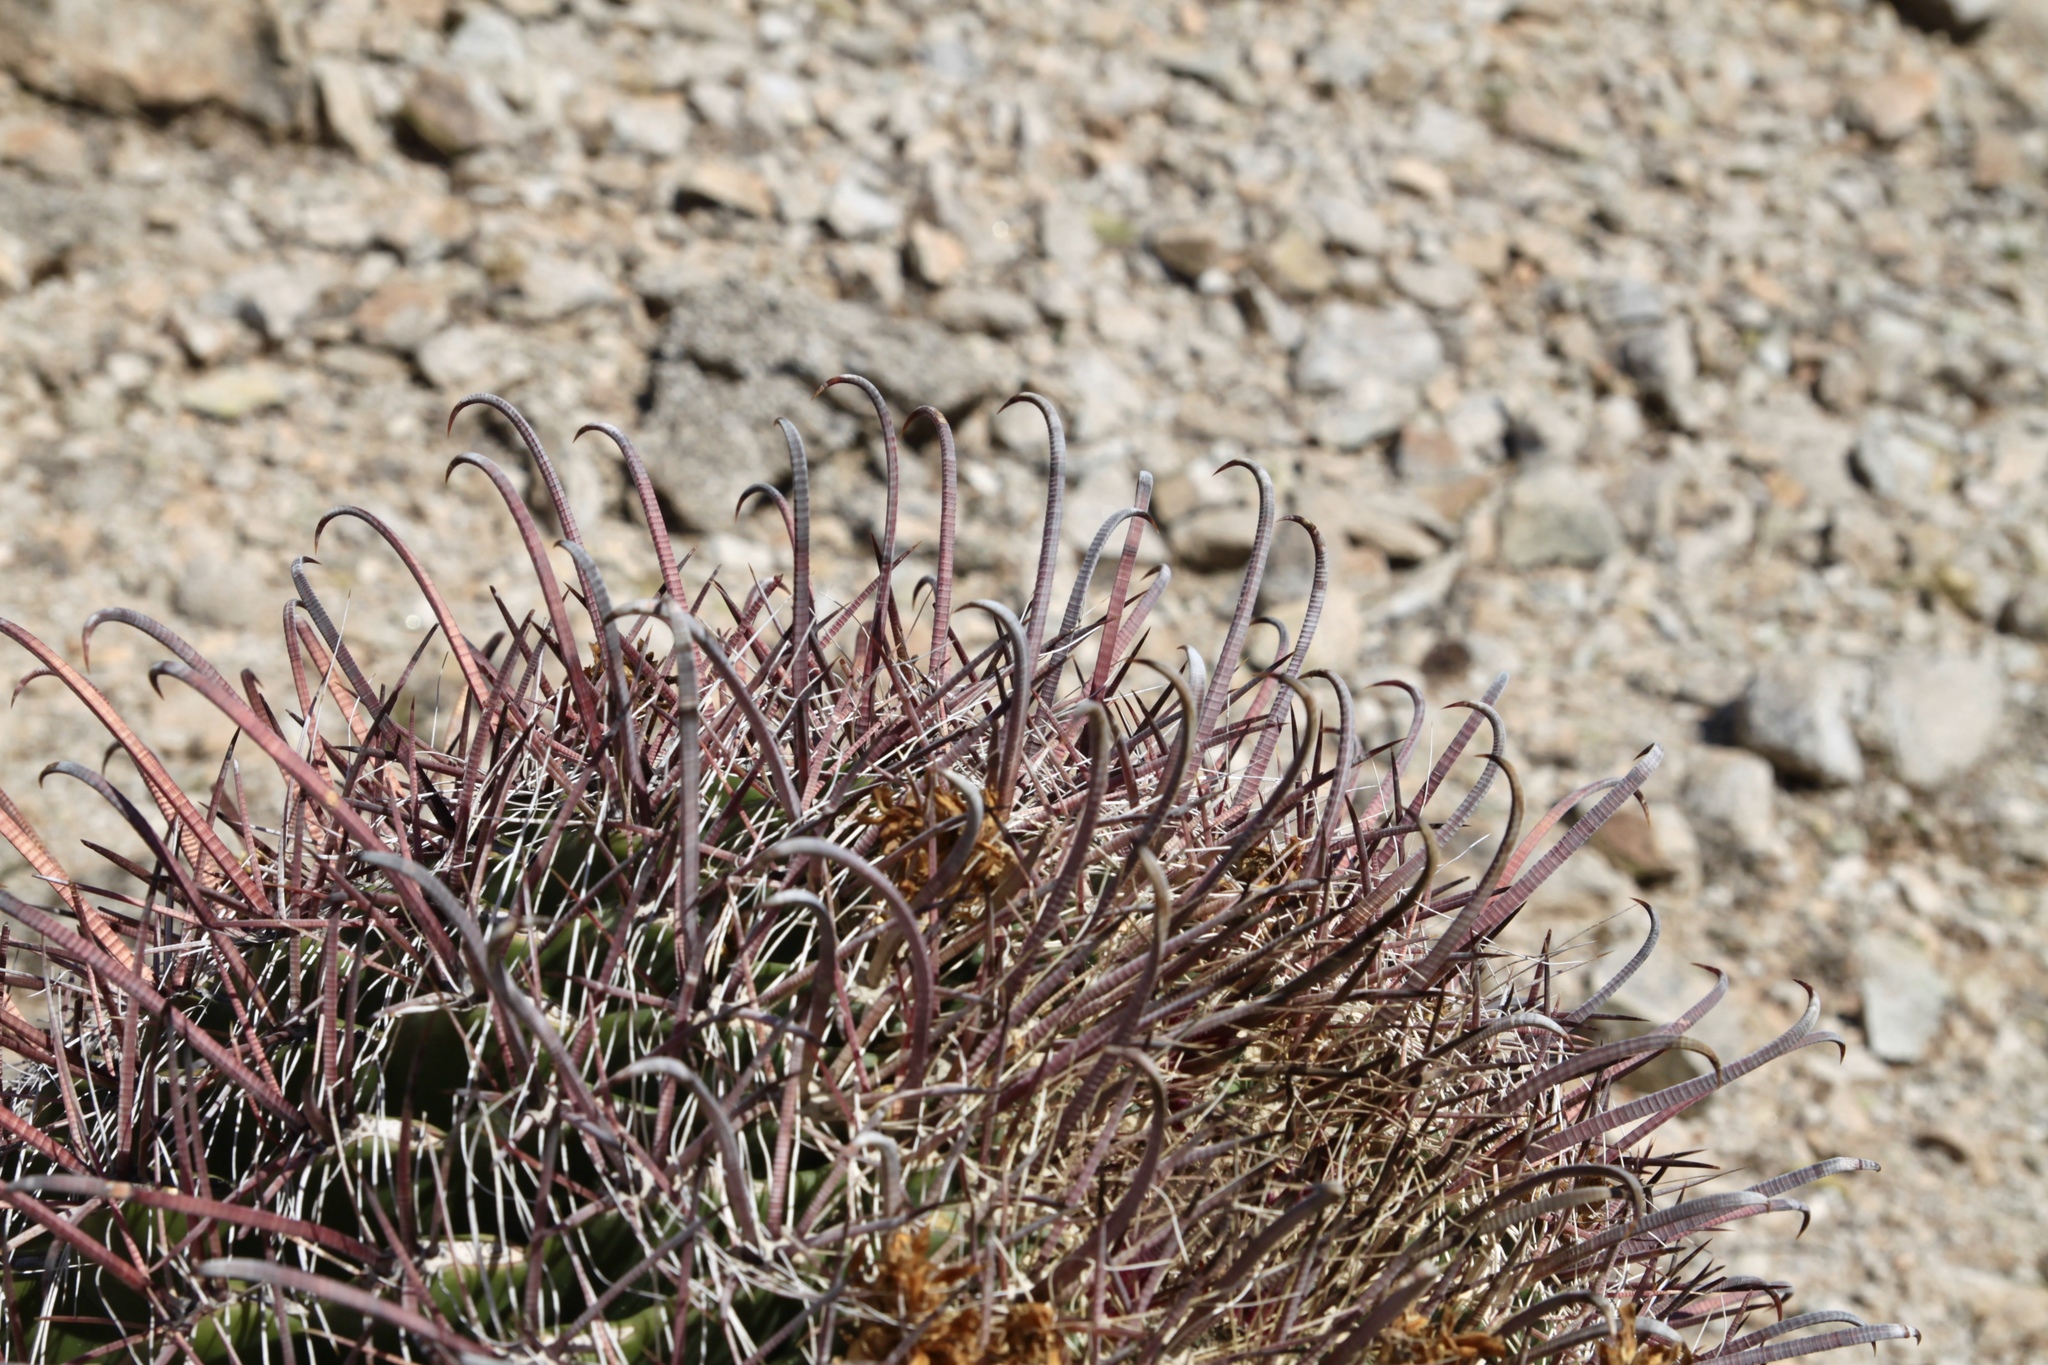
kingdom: Plantae
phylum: Tracheophyta
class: Magnoliopsida
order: Caryophyllales
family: Cactaceae
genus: Ferocactus
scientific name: Ferocactus wislizeni
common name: Candy barrel cactus
